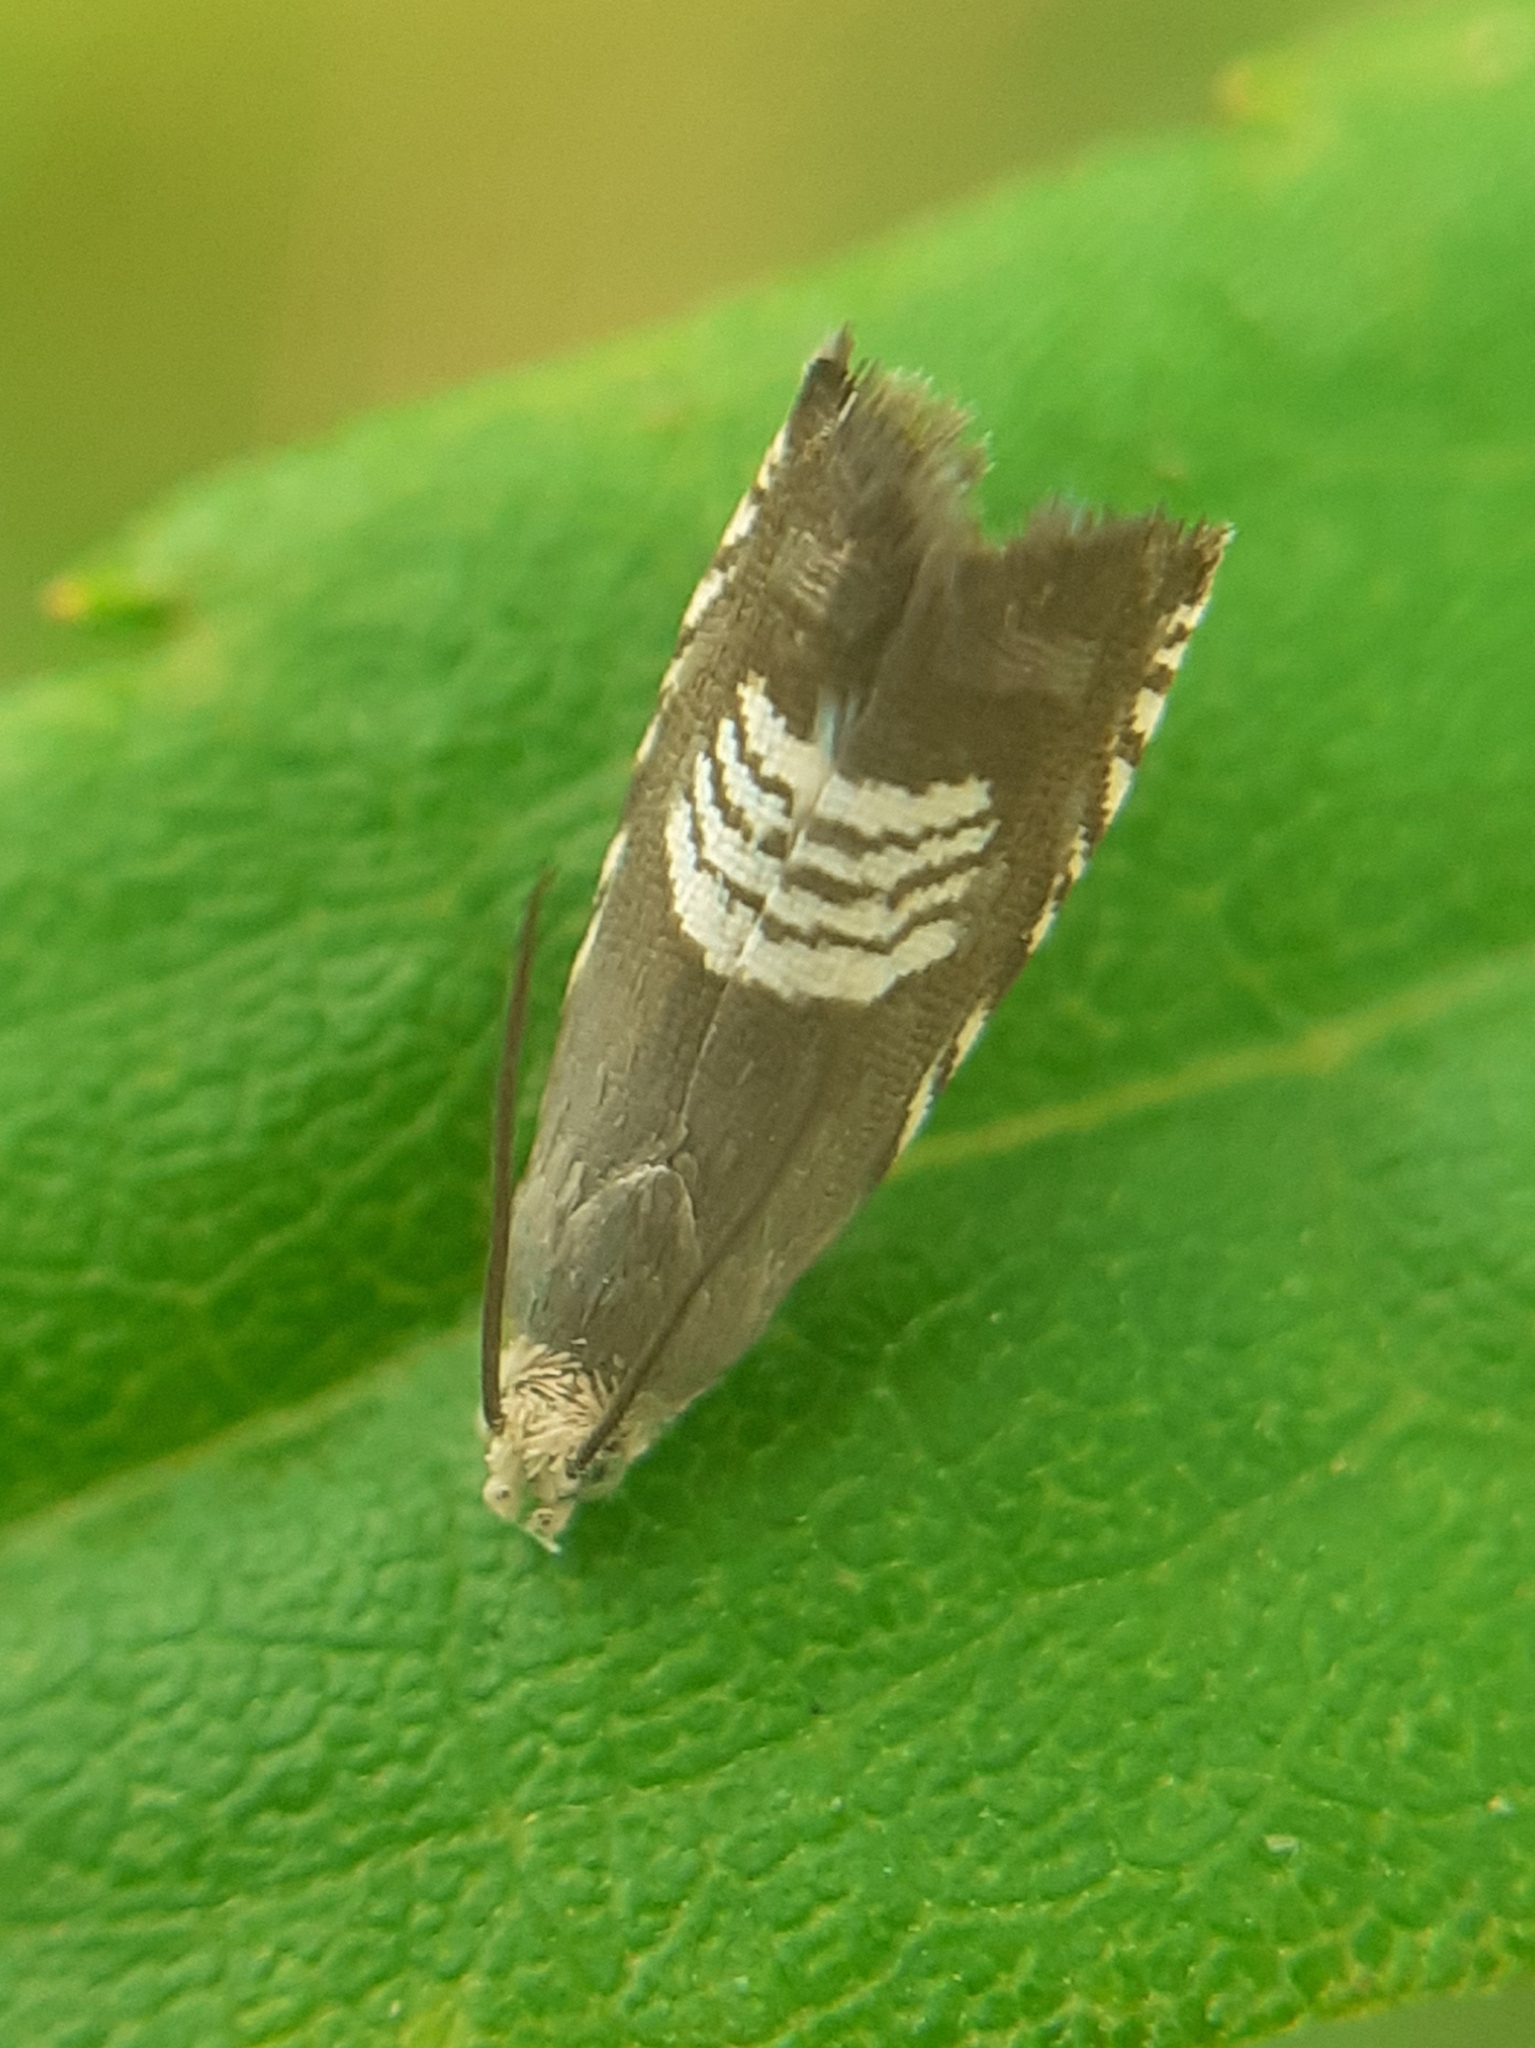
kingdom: Animalia
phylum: Arthropoda
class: Insecta
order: Lepidoptera
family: Tortricidae
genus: Grapholita
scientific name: Grapholita compositella
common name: Triple-stripe piercer
